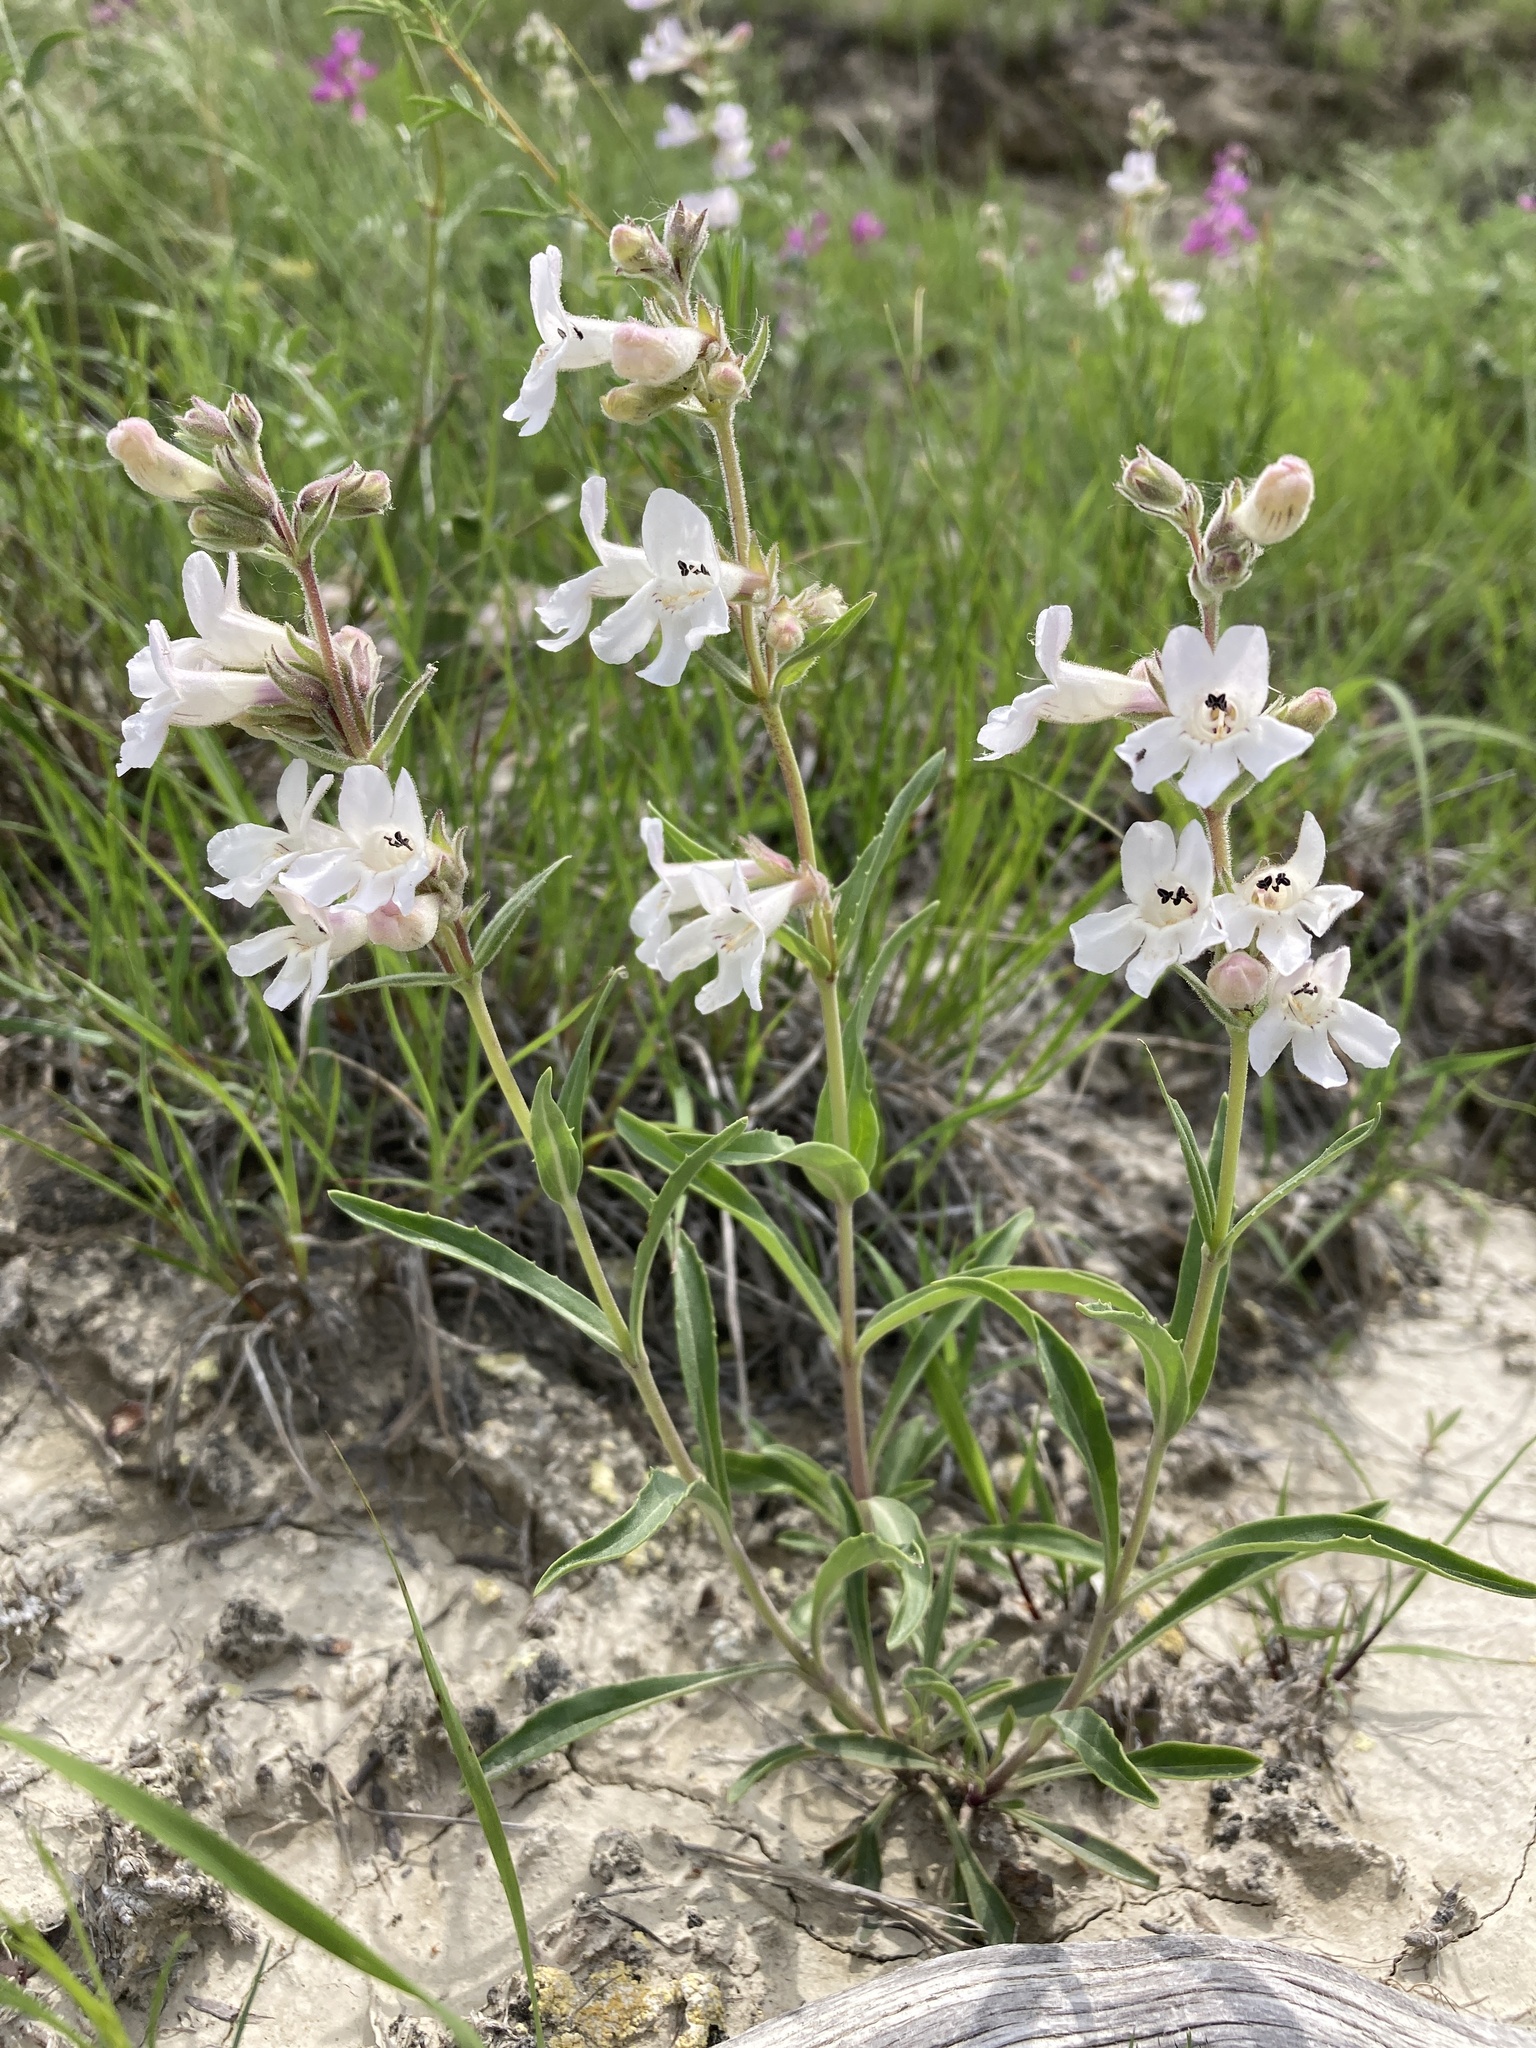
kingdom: Plantae
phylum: Tracheophyta
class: Magnoliopsida
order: Lamiales
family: Plantaginaceae
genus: Penstemon
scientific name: Penstemon albidus
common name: White beardtongue
